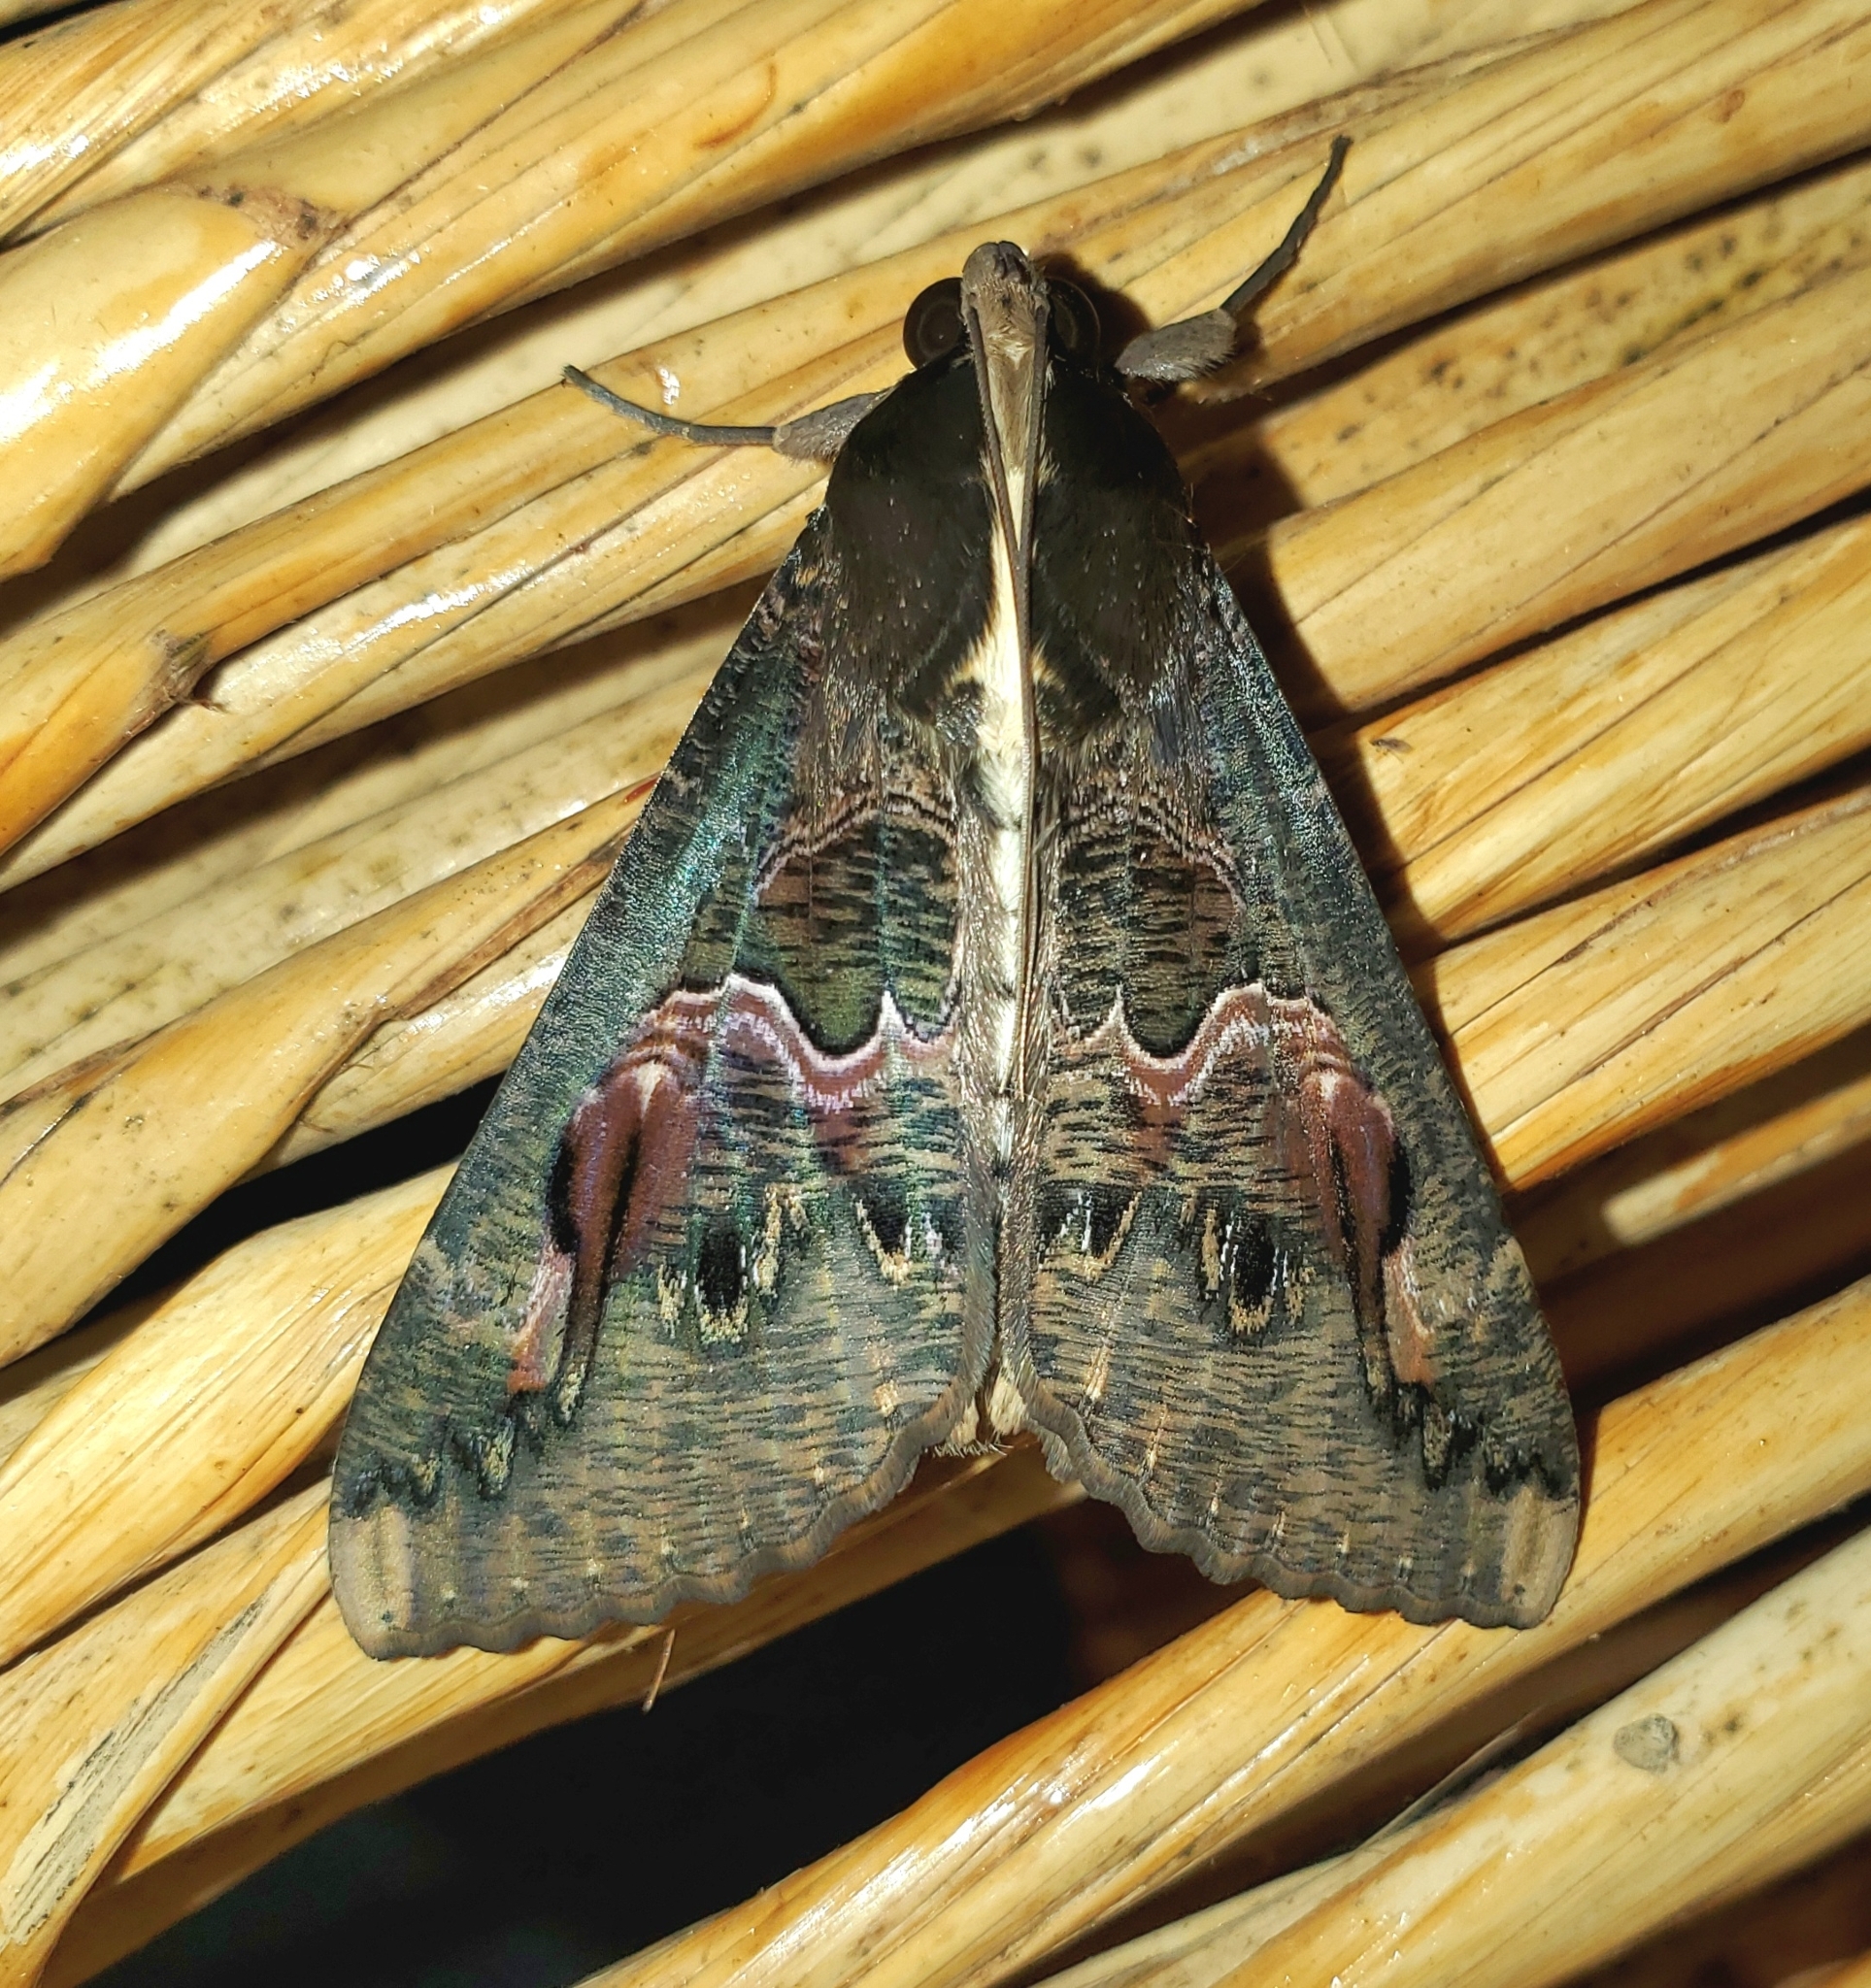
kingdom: Animalia
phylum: Arthropoda
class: Insecta
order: Lepidoptera
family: Erebidae
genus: Sphingomorpha
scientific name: Sphingomorpha chlorea
